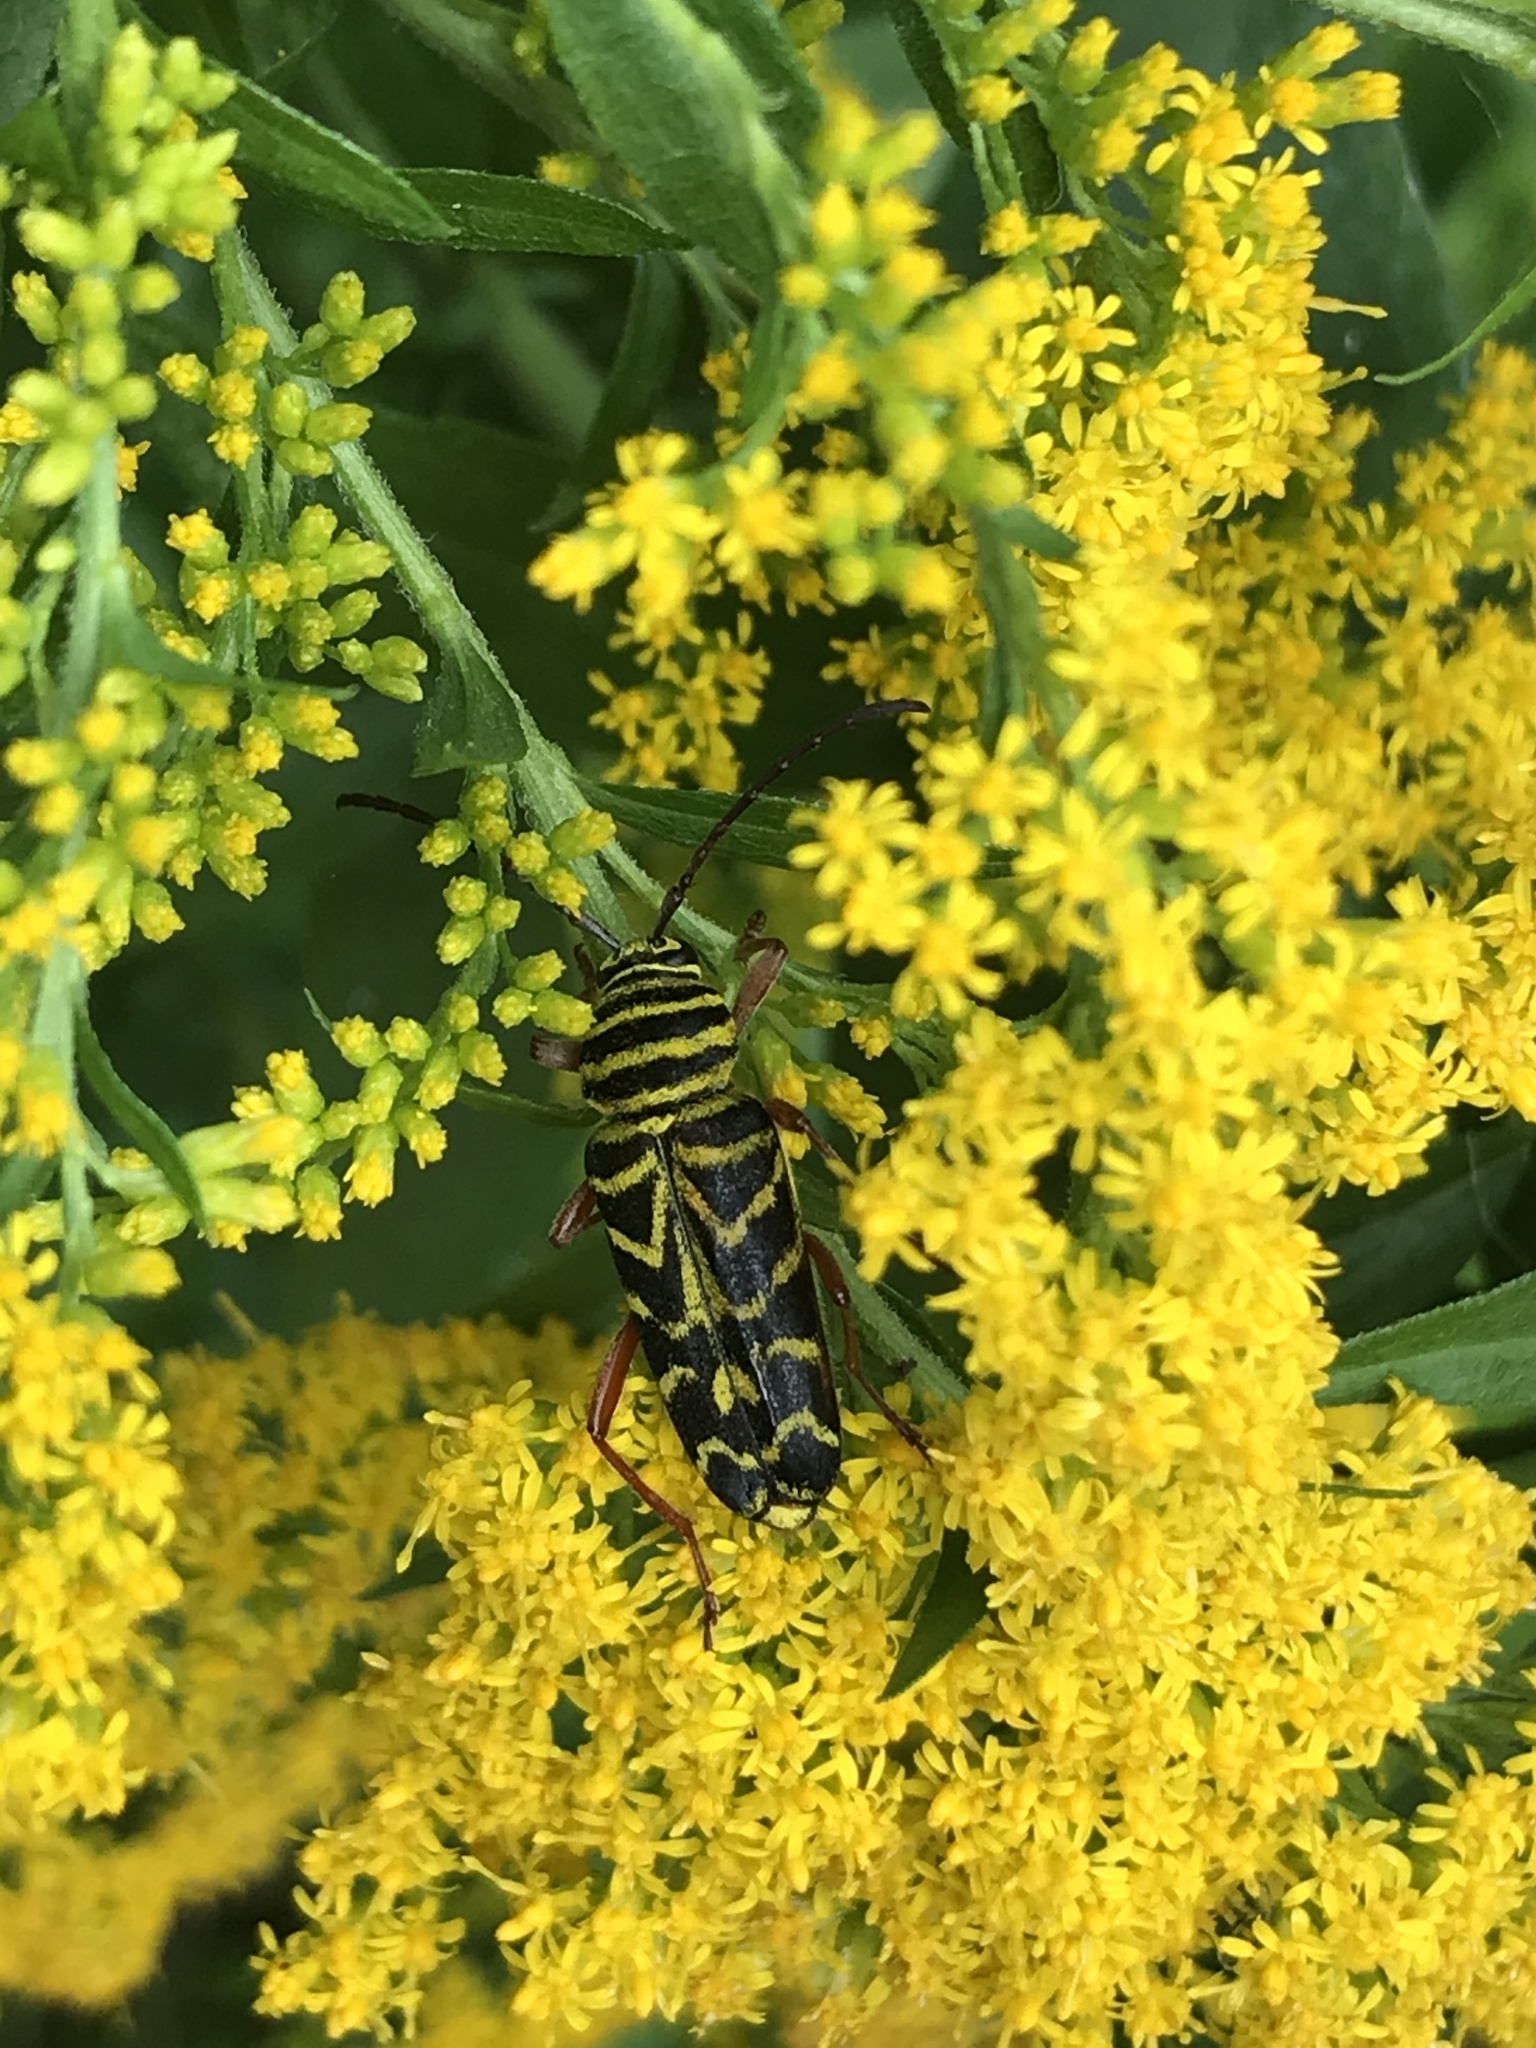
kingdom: Animalia
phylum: Arthropoda
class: Insecta
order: Coleoptera
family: Cerambycidae
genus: Megacyllene
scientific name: Megacyllene robiniae
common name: Locust borer
